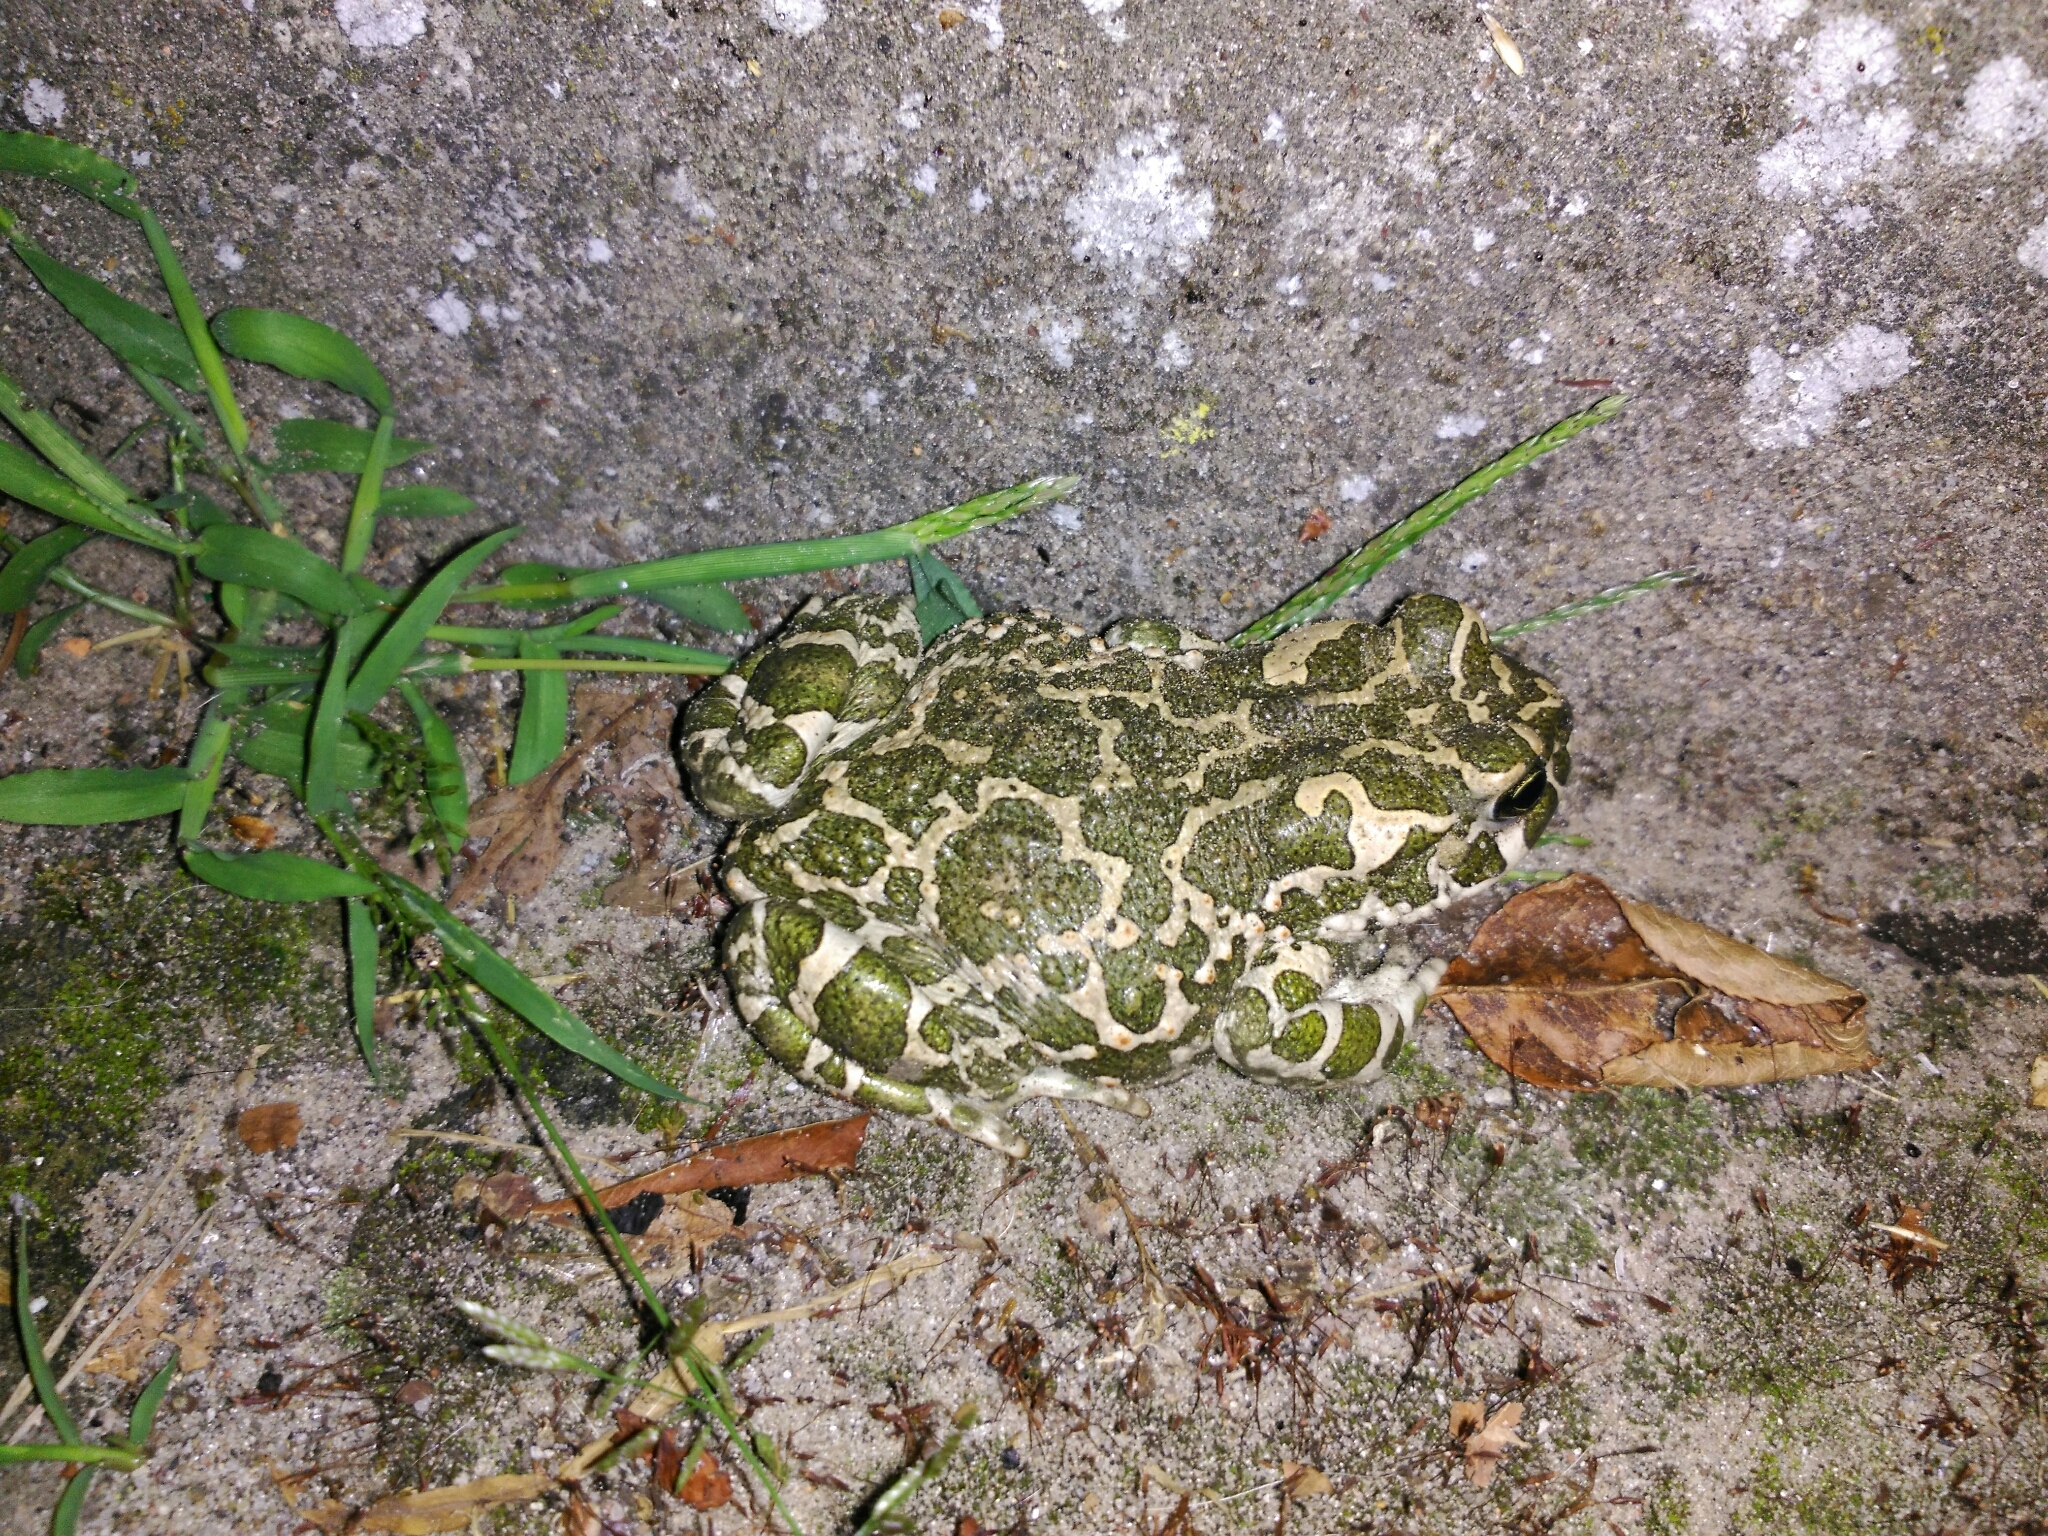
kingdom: Animalia
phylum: Chordata
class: Amphibia
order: Anura
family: Bufonidae
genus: Bufotes
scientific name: Bufotes viridis
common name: European green toad
